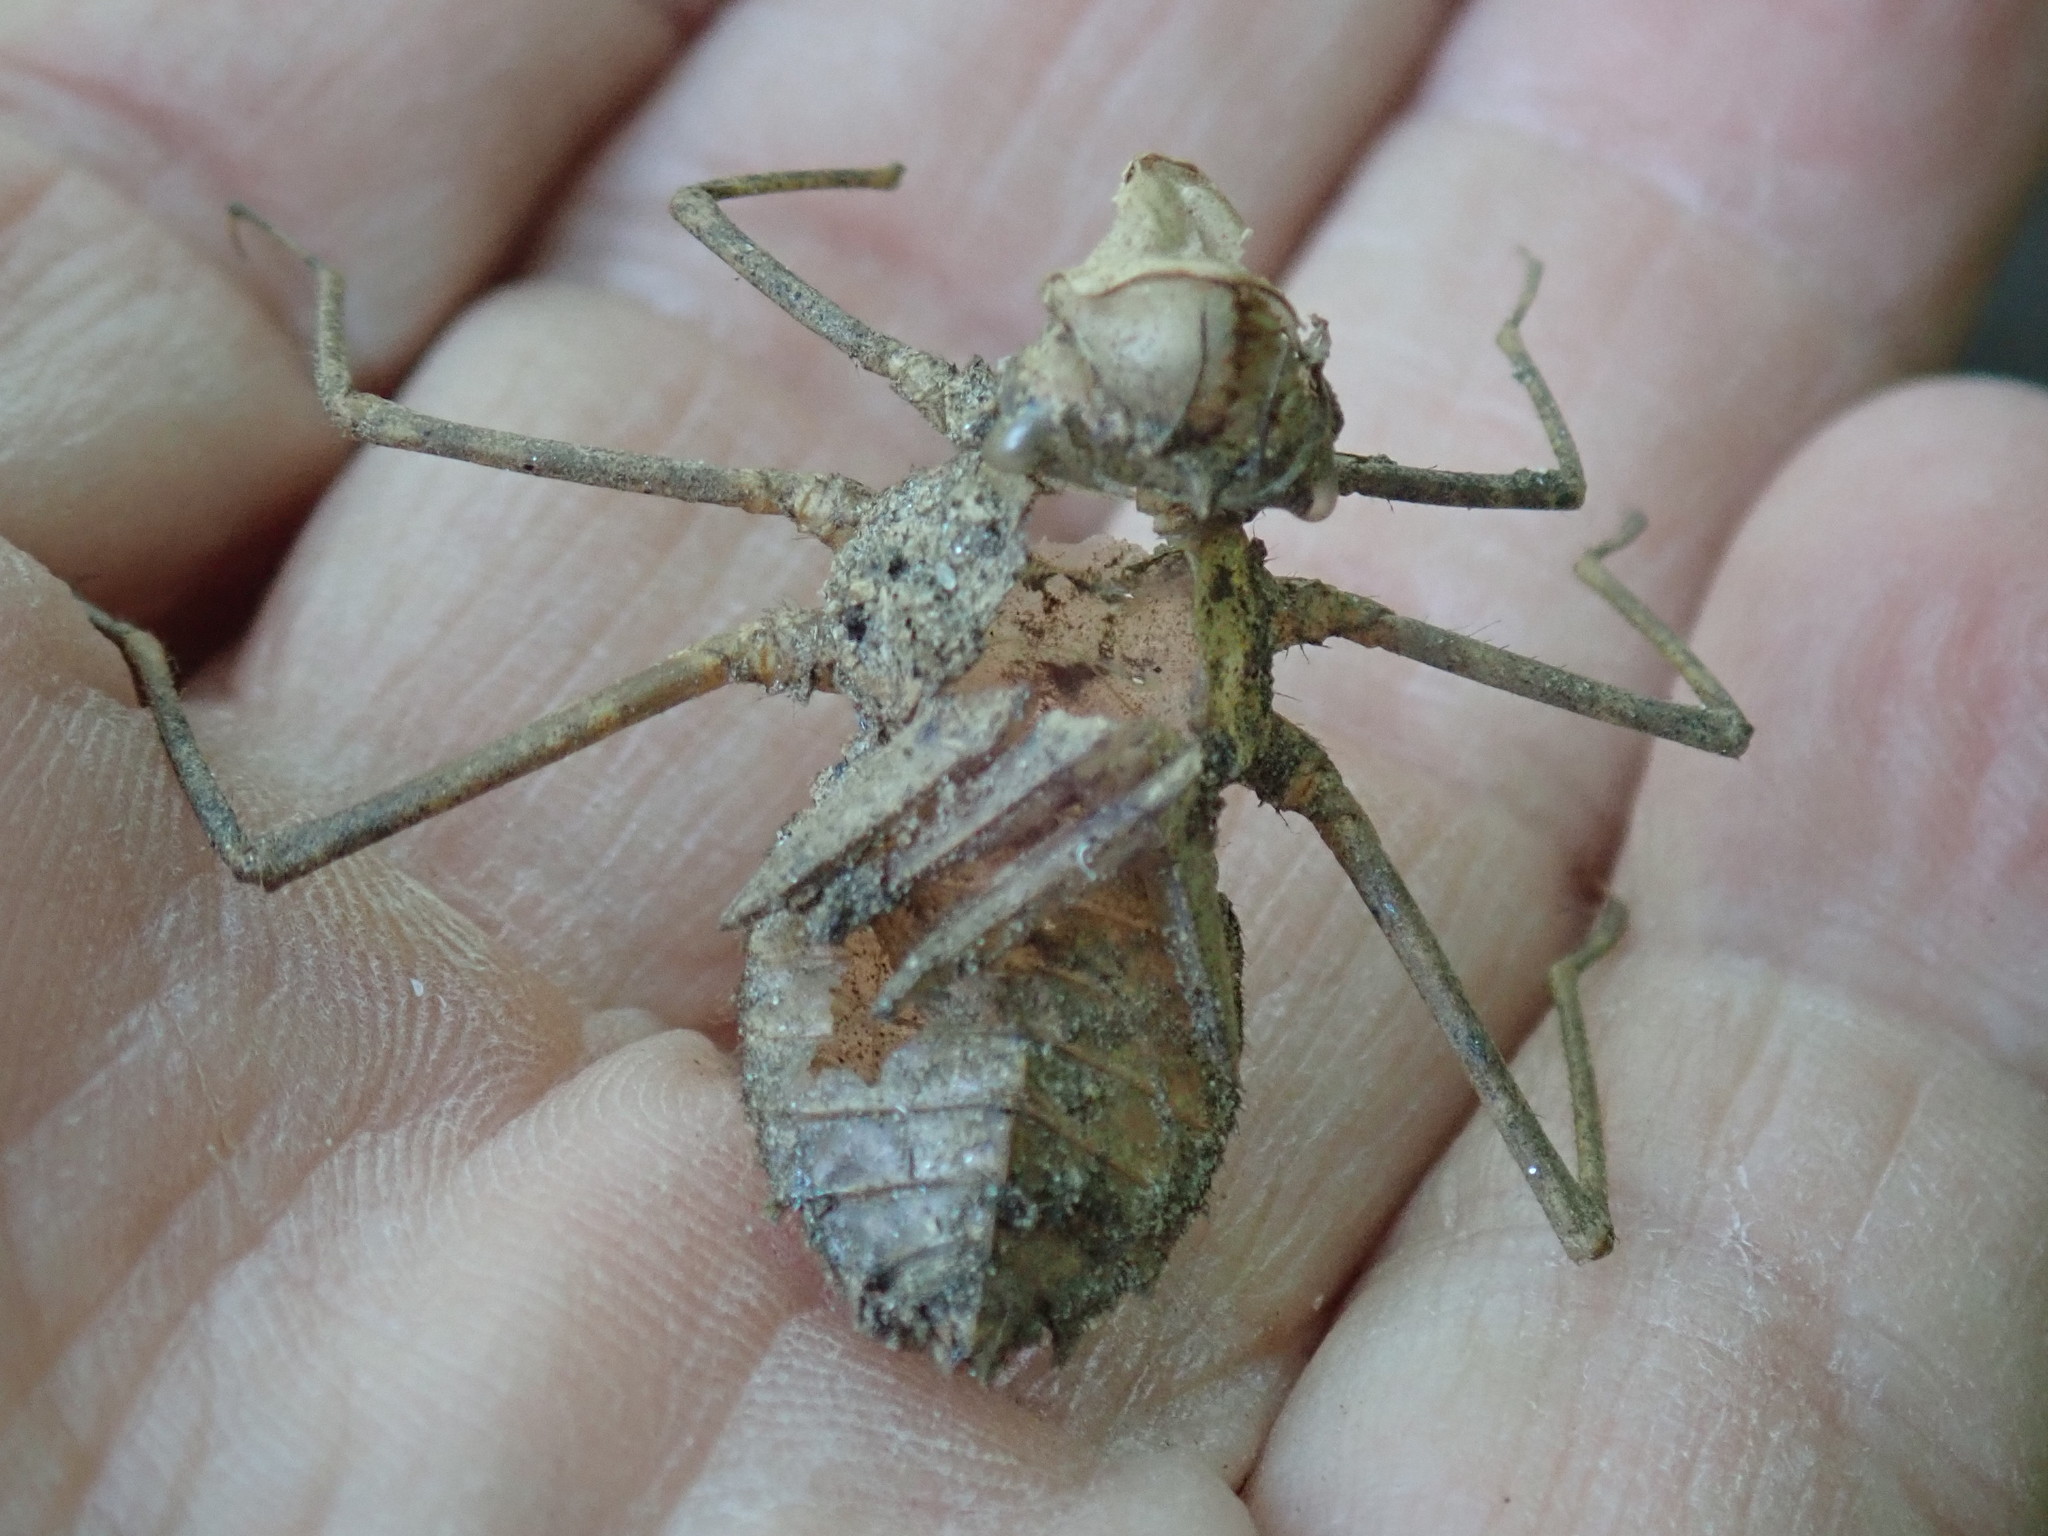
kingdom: Animalia
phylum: Arthropoda
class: Insecta
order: Odonata
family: Macromiidae
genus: Macromia
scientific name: Macromia illinoiensis
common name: Swift river cruiser
